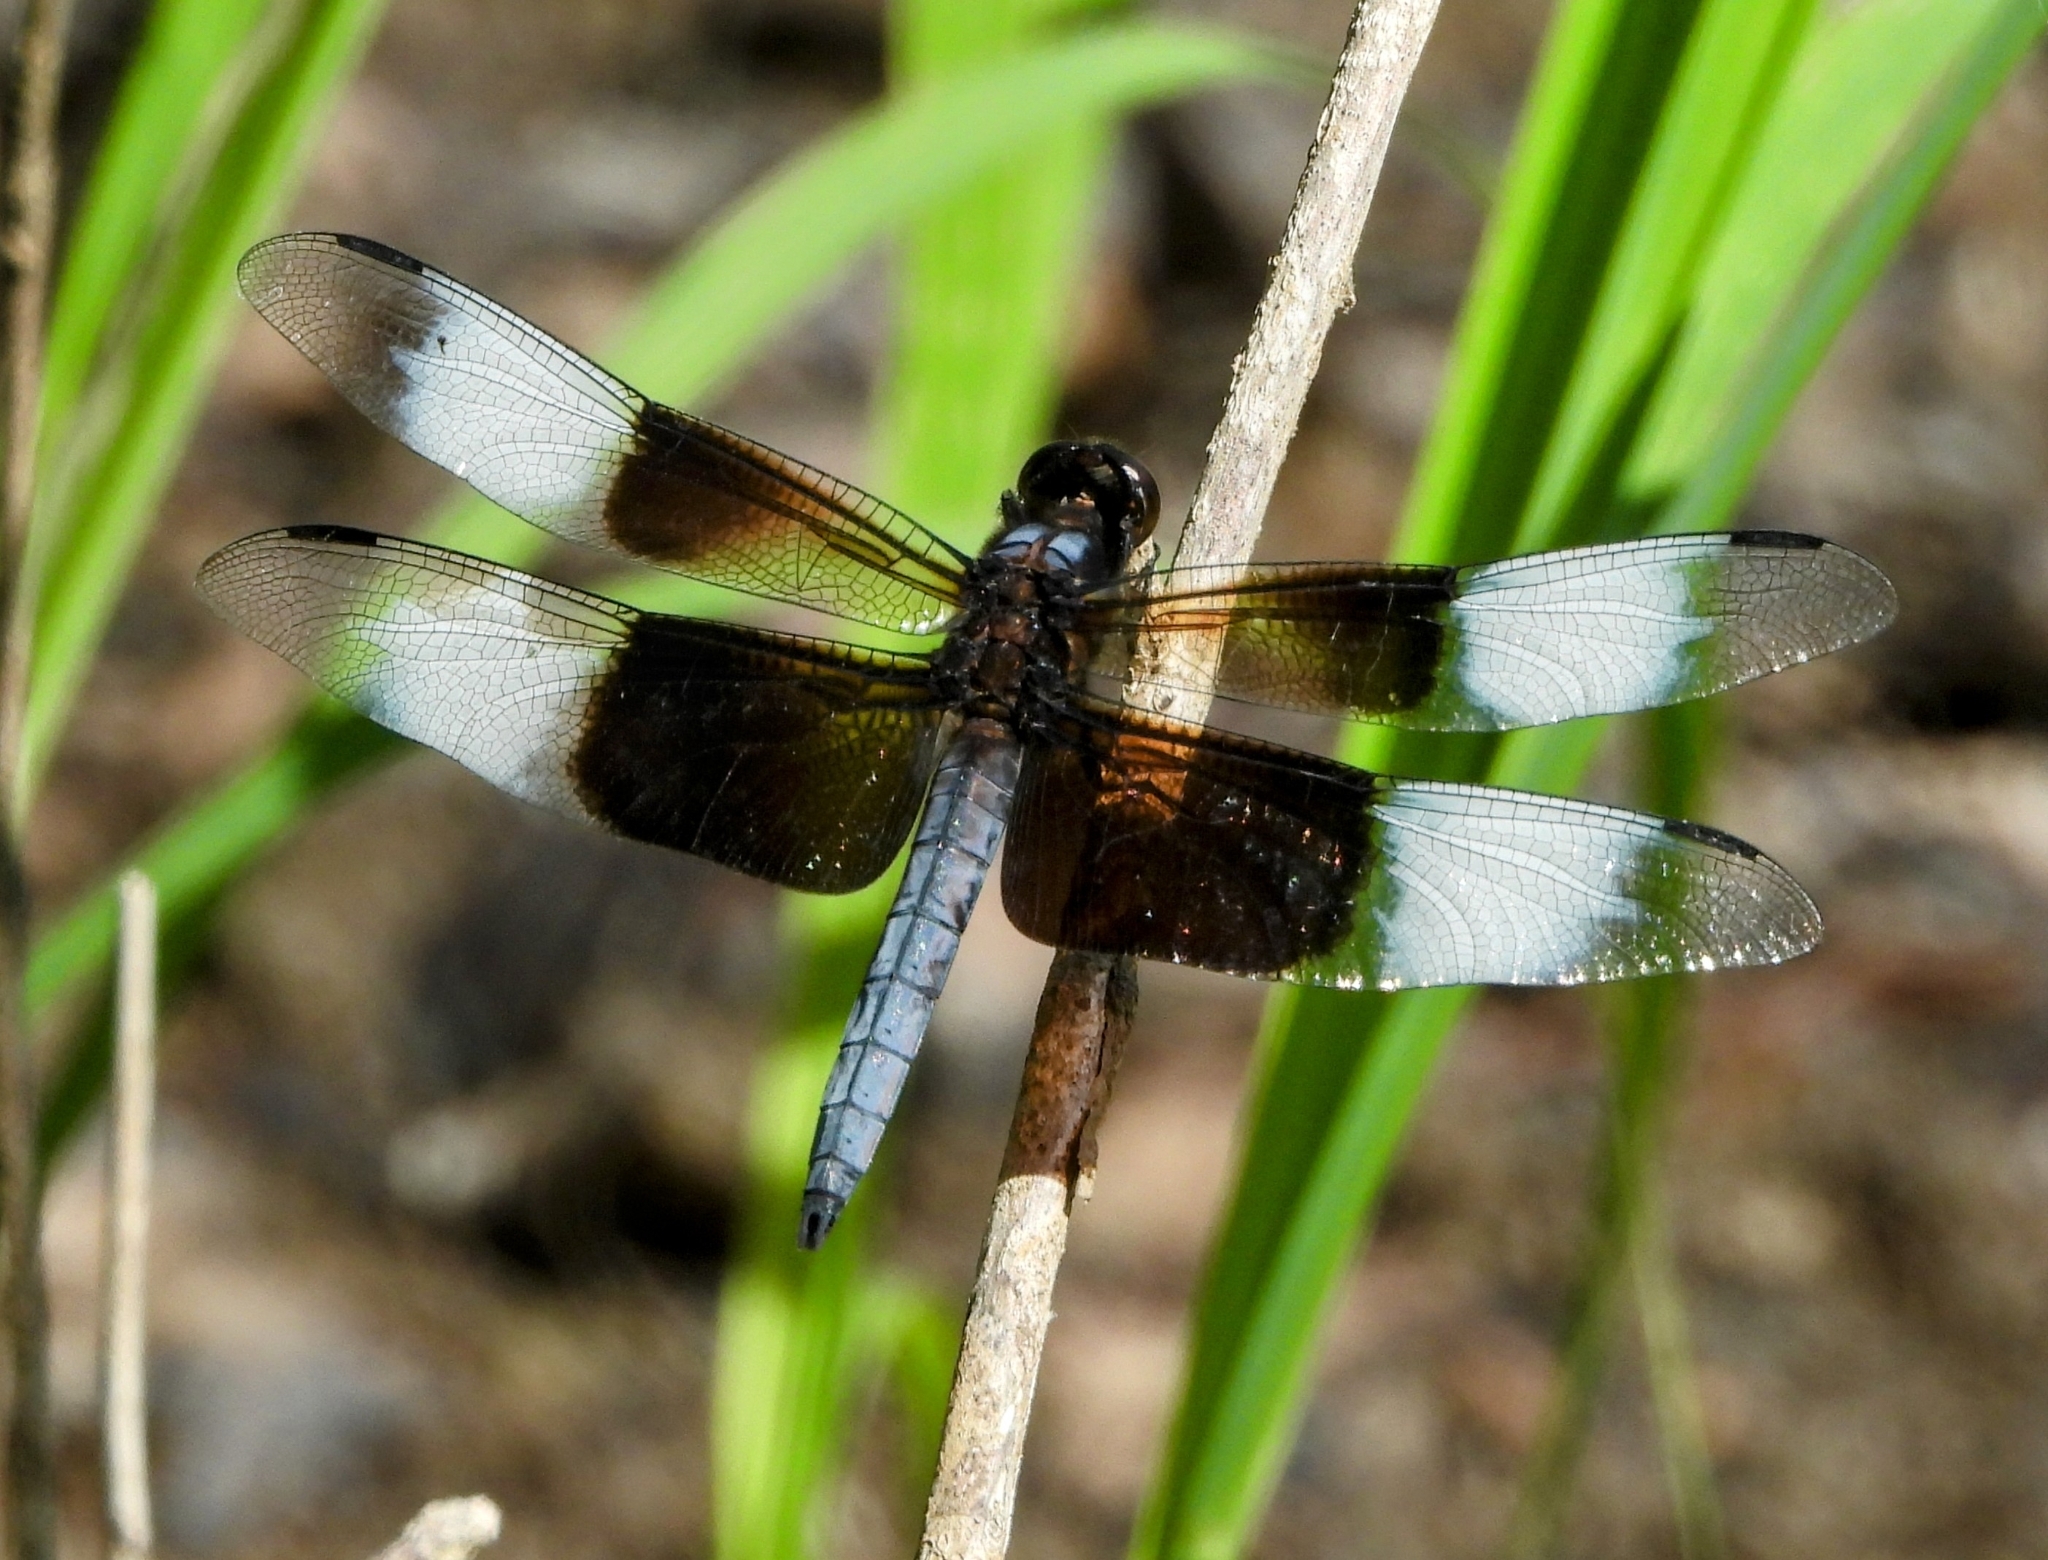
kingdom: Animalia
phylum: Arthropoda
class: Insecta
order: Odonata
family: Libellulidae
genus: Libellula
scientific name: Libellula luctuosa
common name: Widow skimmer
